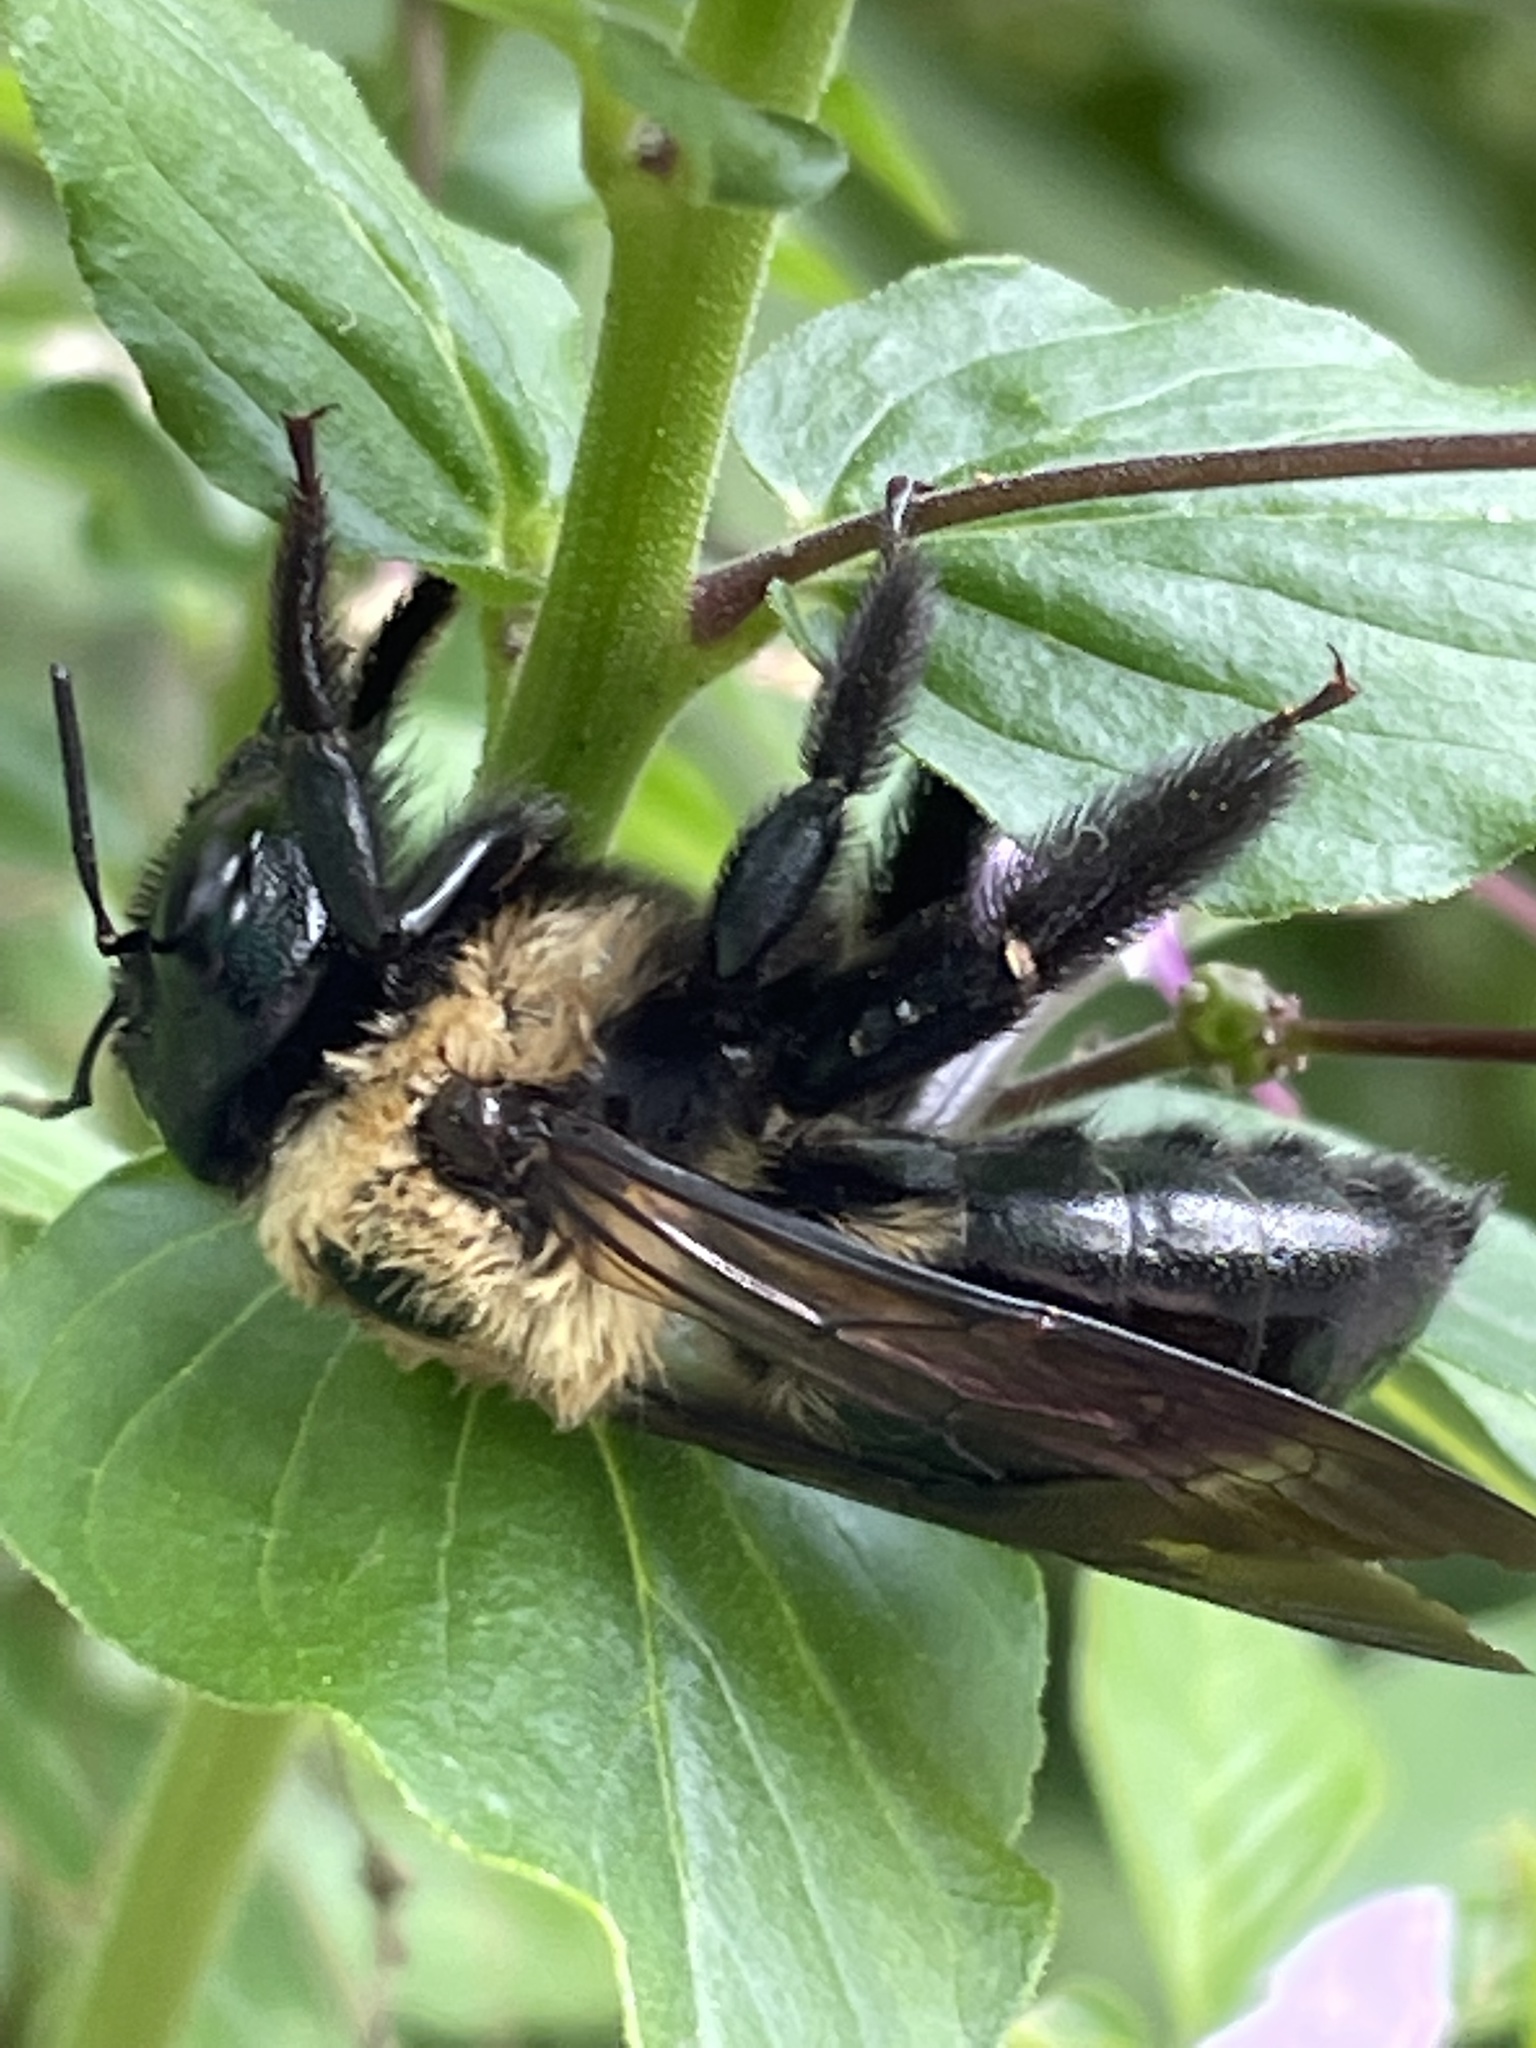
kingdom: Animalia
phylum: Arthropoda
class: Insecta
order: Hymenoptera
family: Apidae
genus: Xylocopa
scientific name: Xylocopa virginica
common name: Carpenter bee
